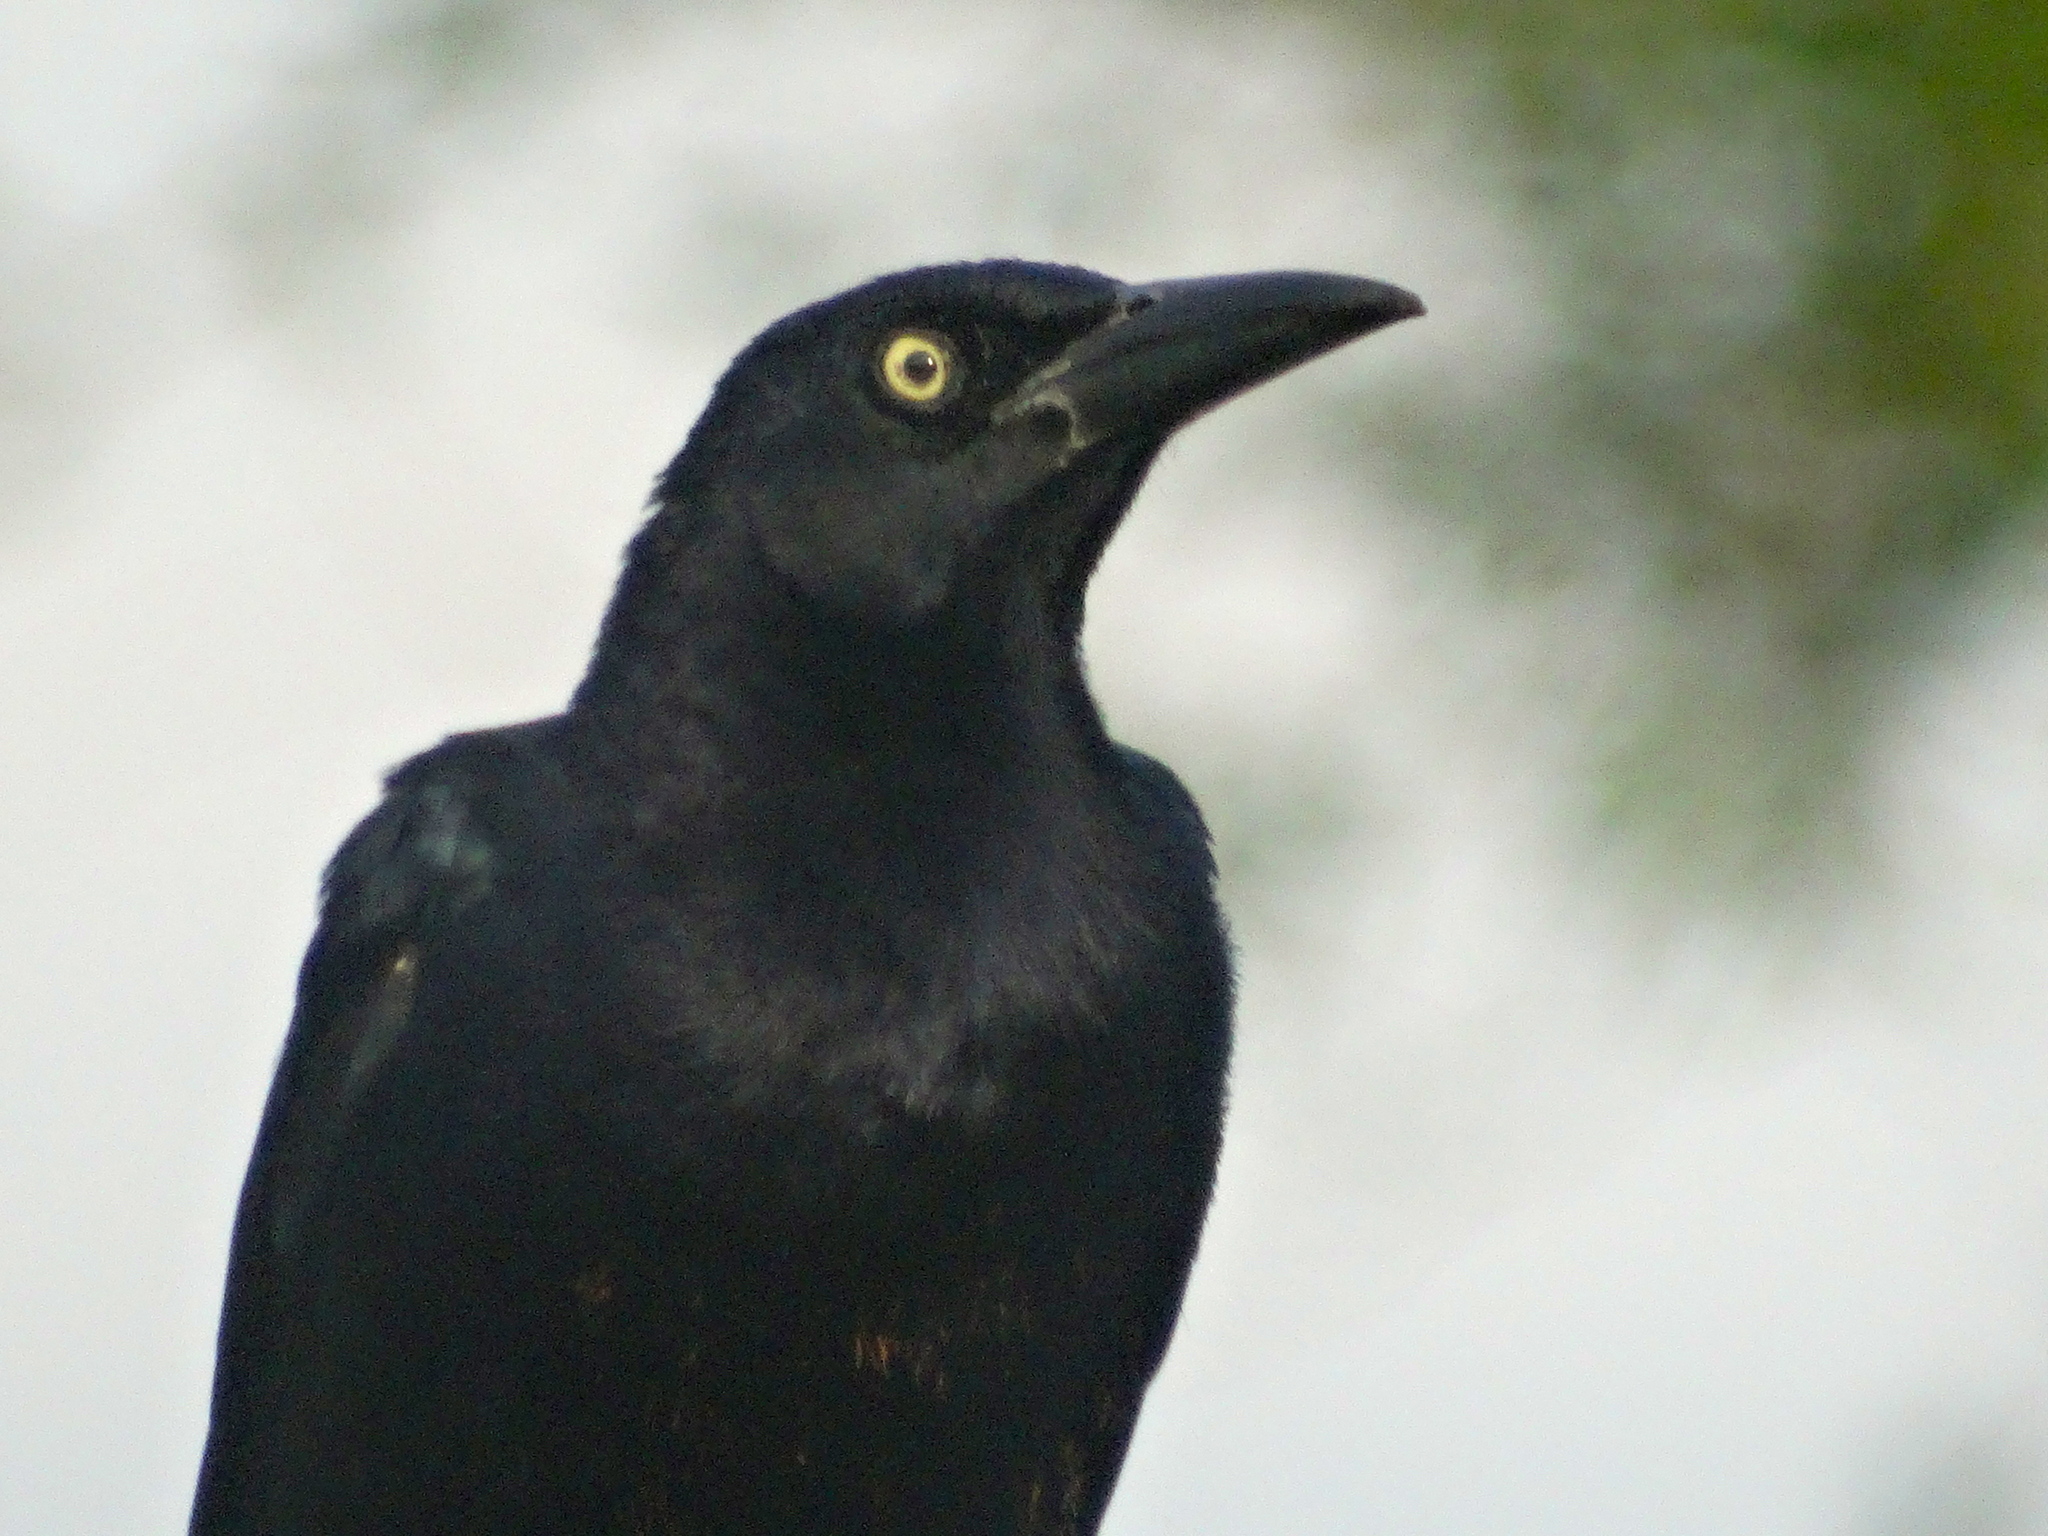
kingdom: Animalia
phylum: Chordata
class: Aves
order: Passeriformes
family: Icteridae
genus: Quiscalus
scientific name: Quiscalus mexicanus
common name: Great-tailed grackle
